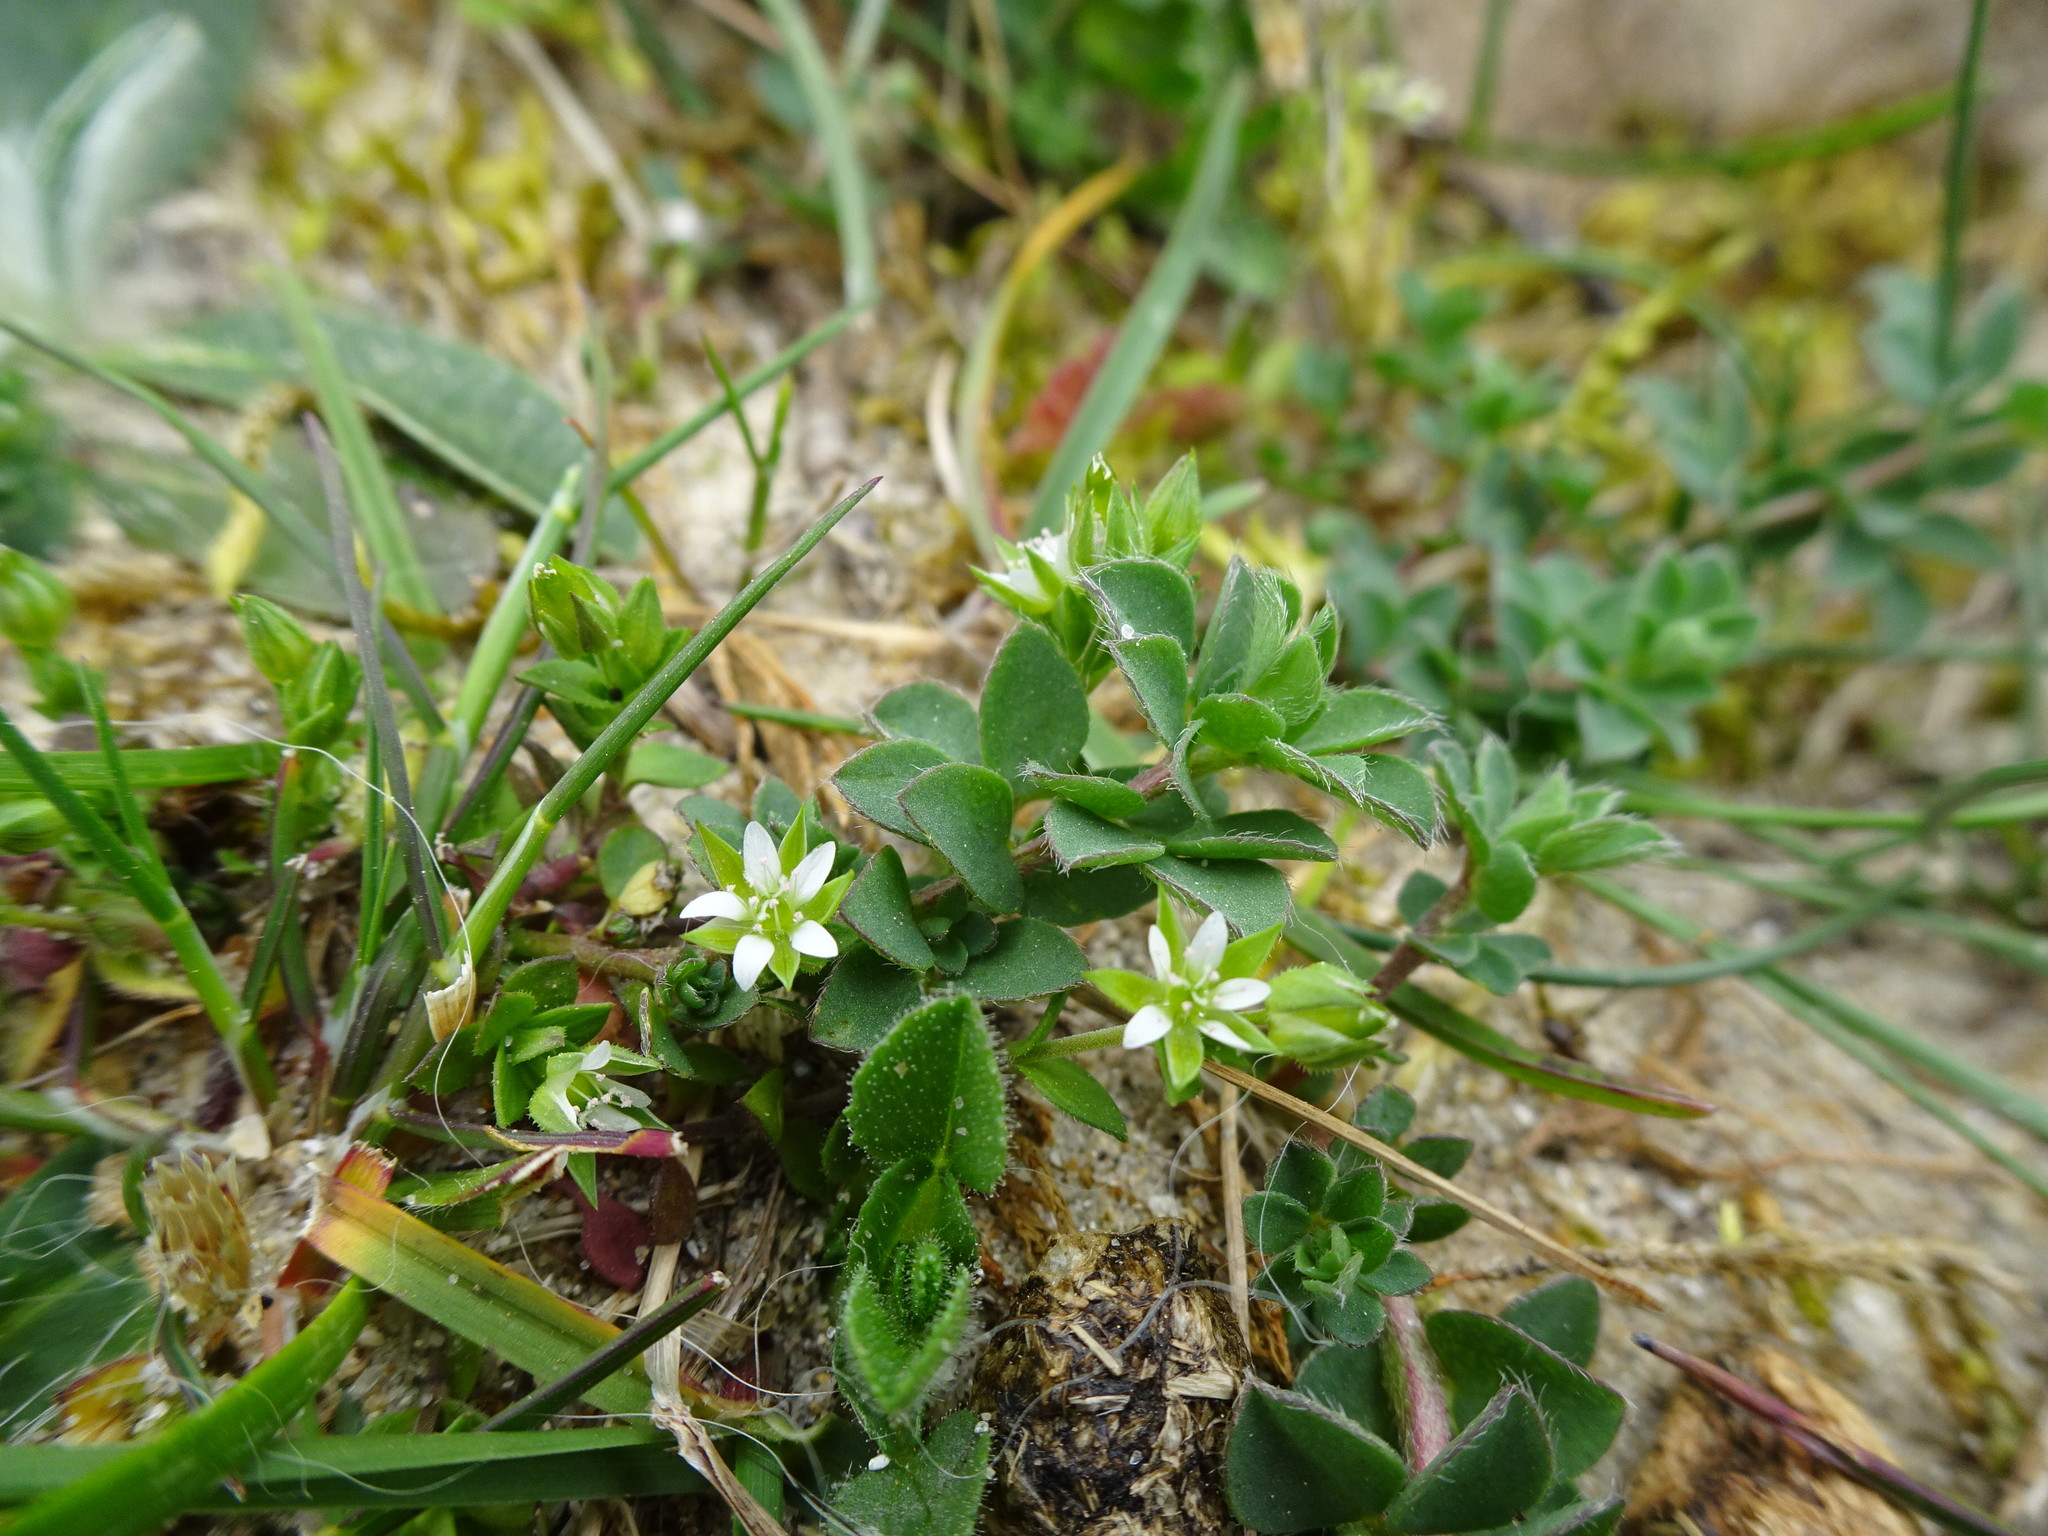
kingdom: Plantae
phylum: Tracheophyta
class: Magnoliopsida
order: Caryophyllales
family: Caryophyllaceae
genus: Arenaria
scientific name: Arenaria serpyllifolia
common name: Thyme-leaved sandwort
